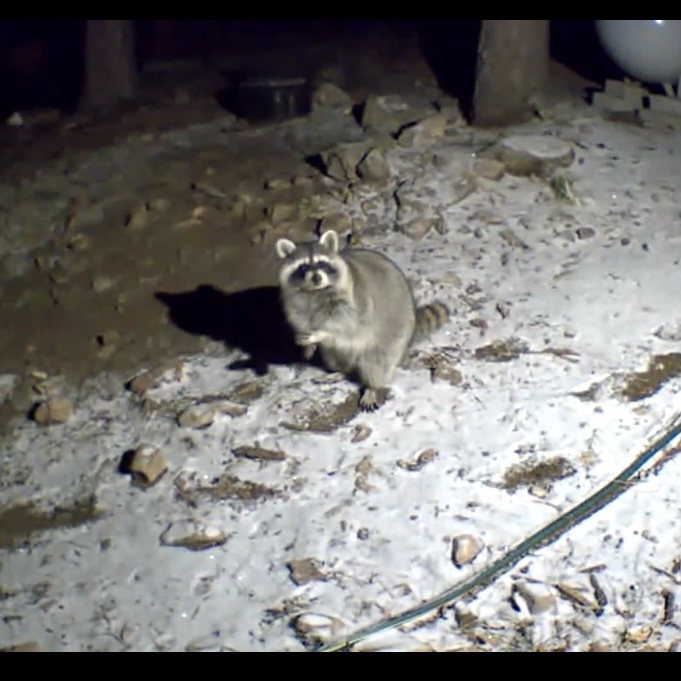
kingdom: Animalia
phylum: Chordata
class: Mammalia
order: Carnivora
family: Procyonidae
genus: Procyon
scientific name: Procyon lotor
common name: Raccoon
